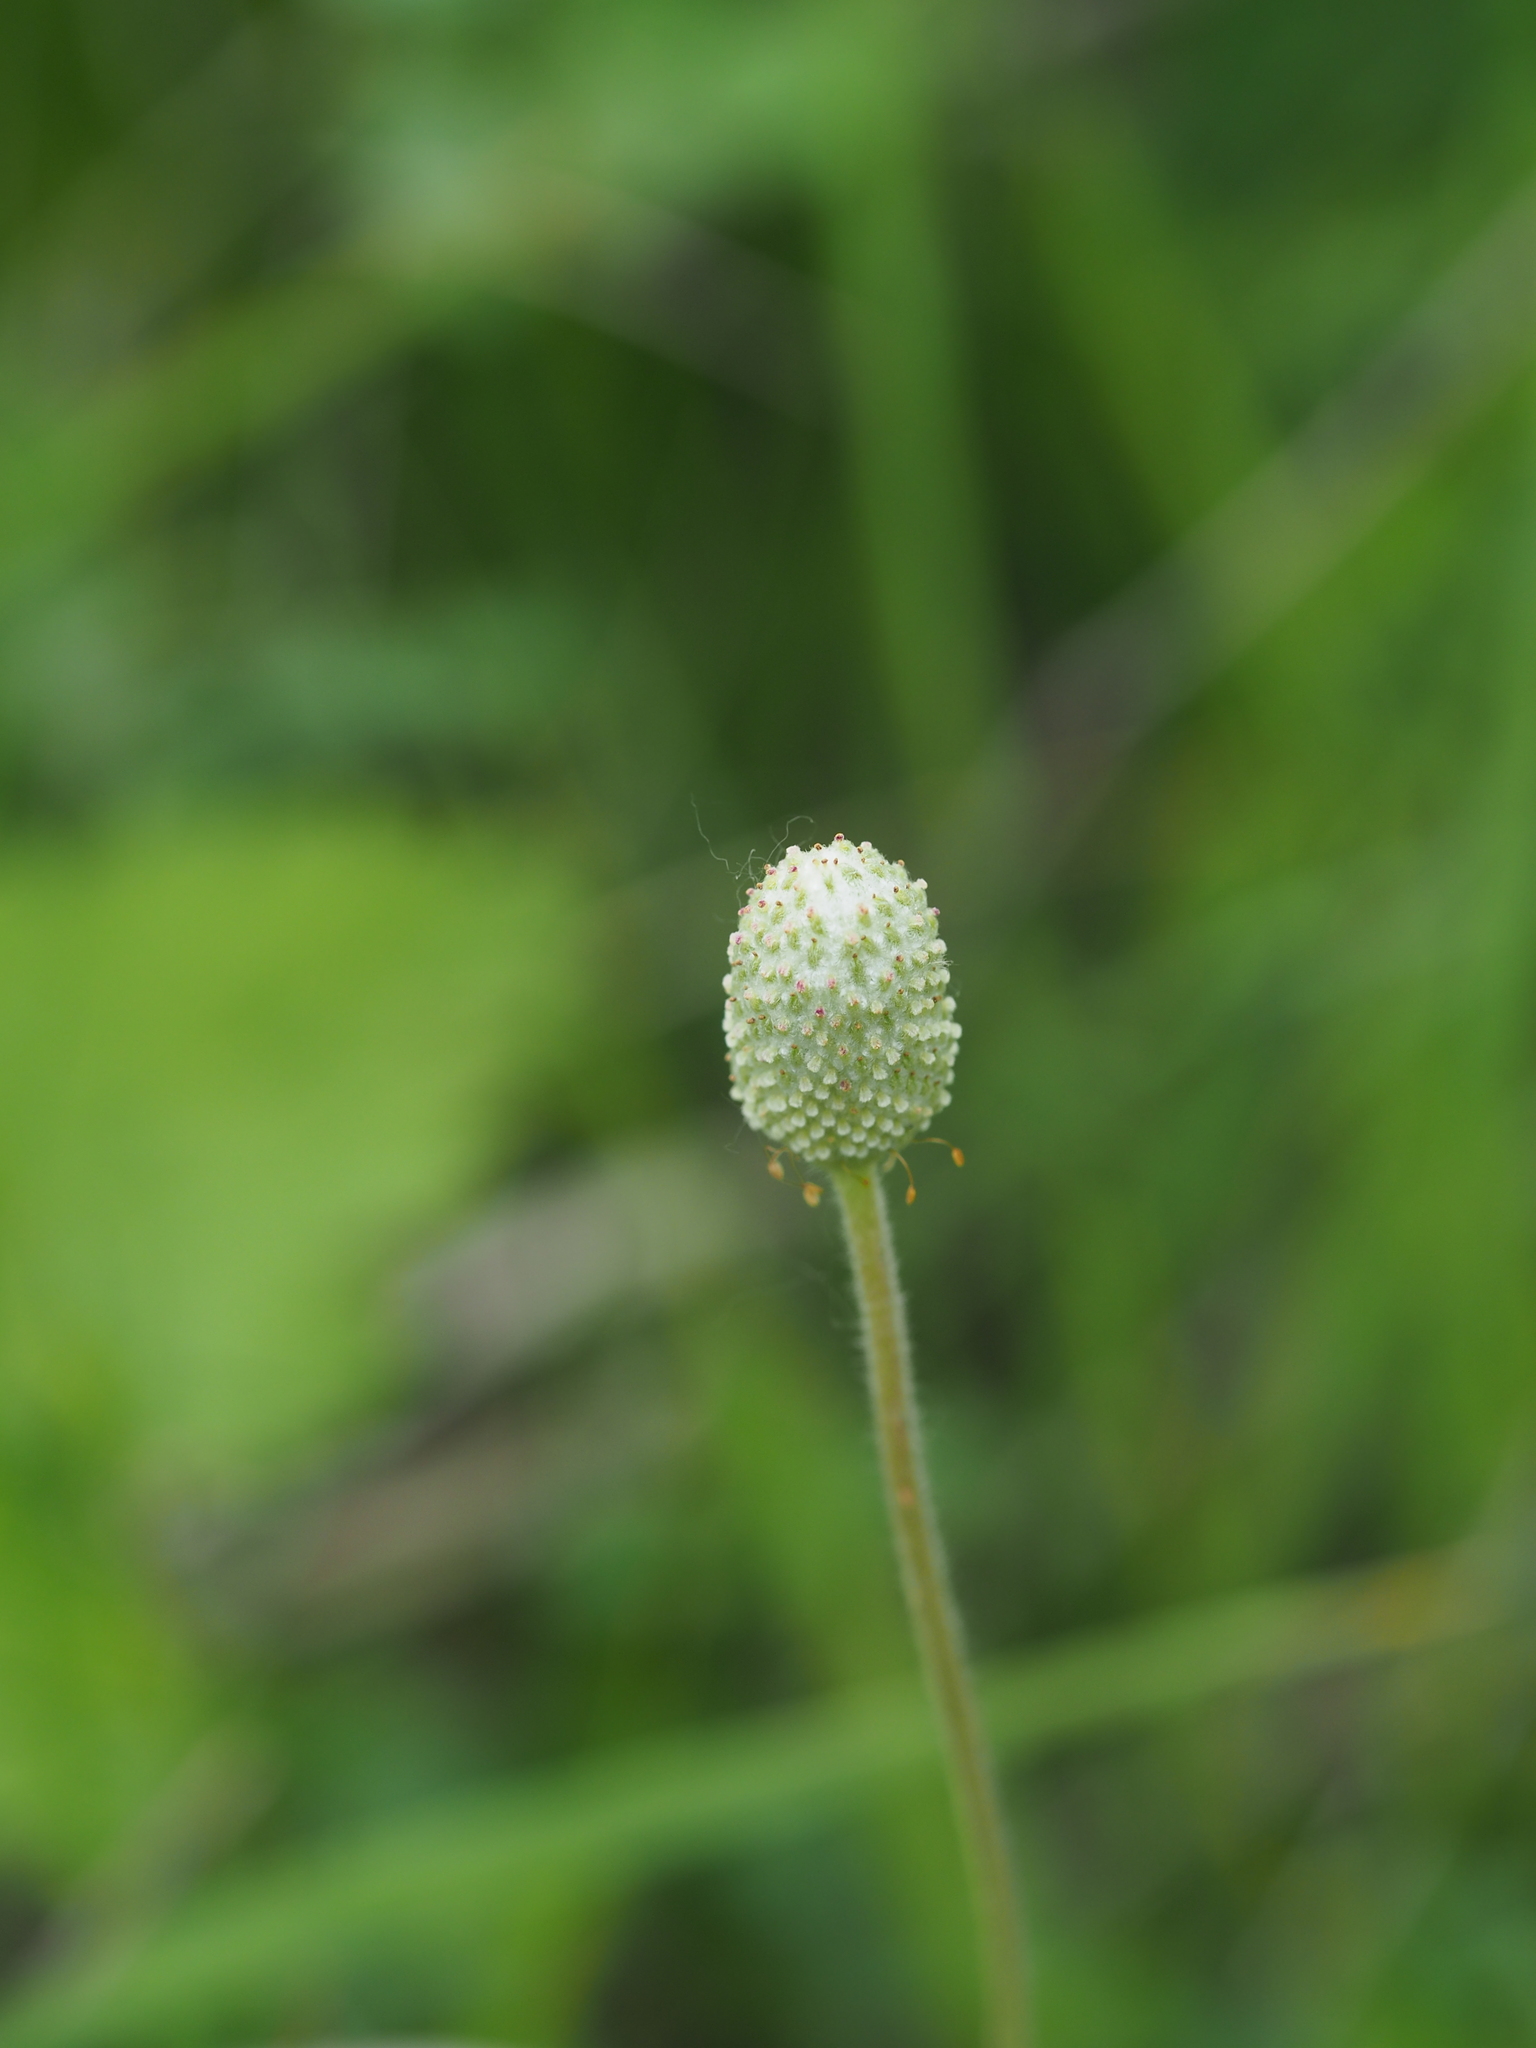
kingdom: Plantae
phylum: Tracheophyta
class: Magnoliopsida
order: Ranunculales
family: Ranunculaceae
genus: Anemone
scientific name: Anemone sylvestris
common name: Snowdrop anemone
